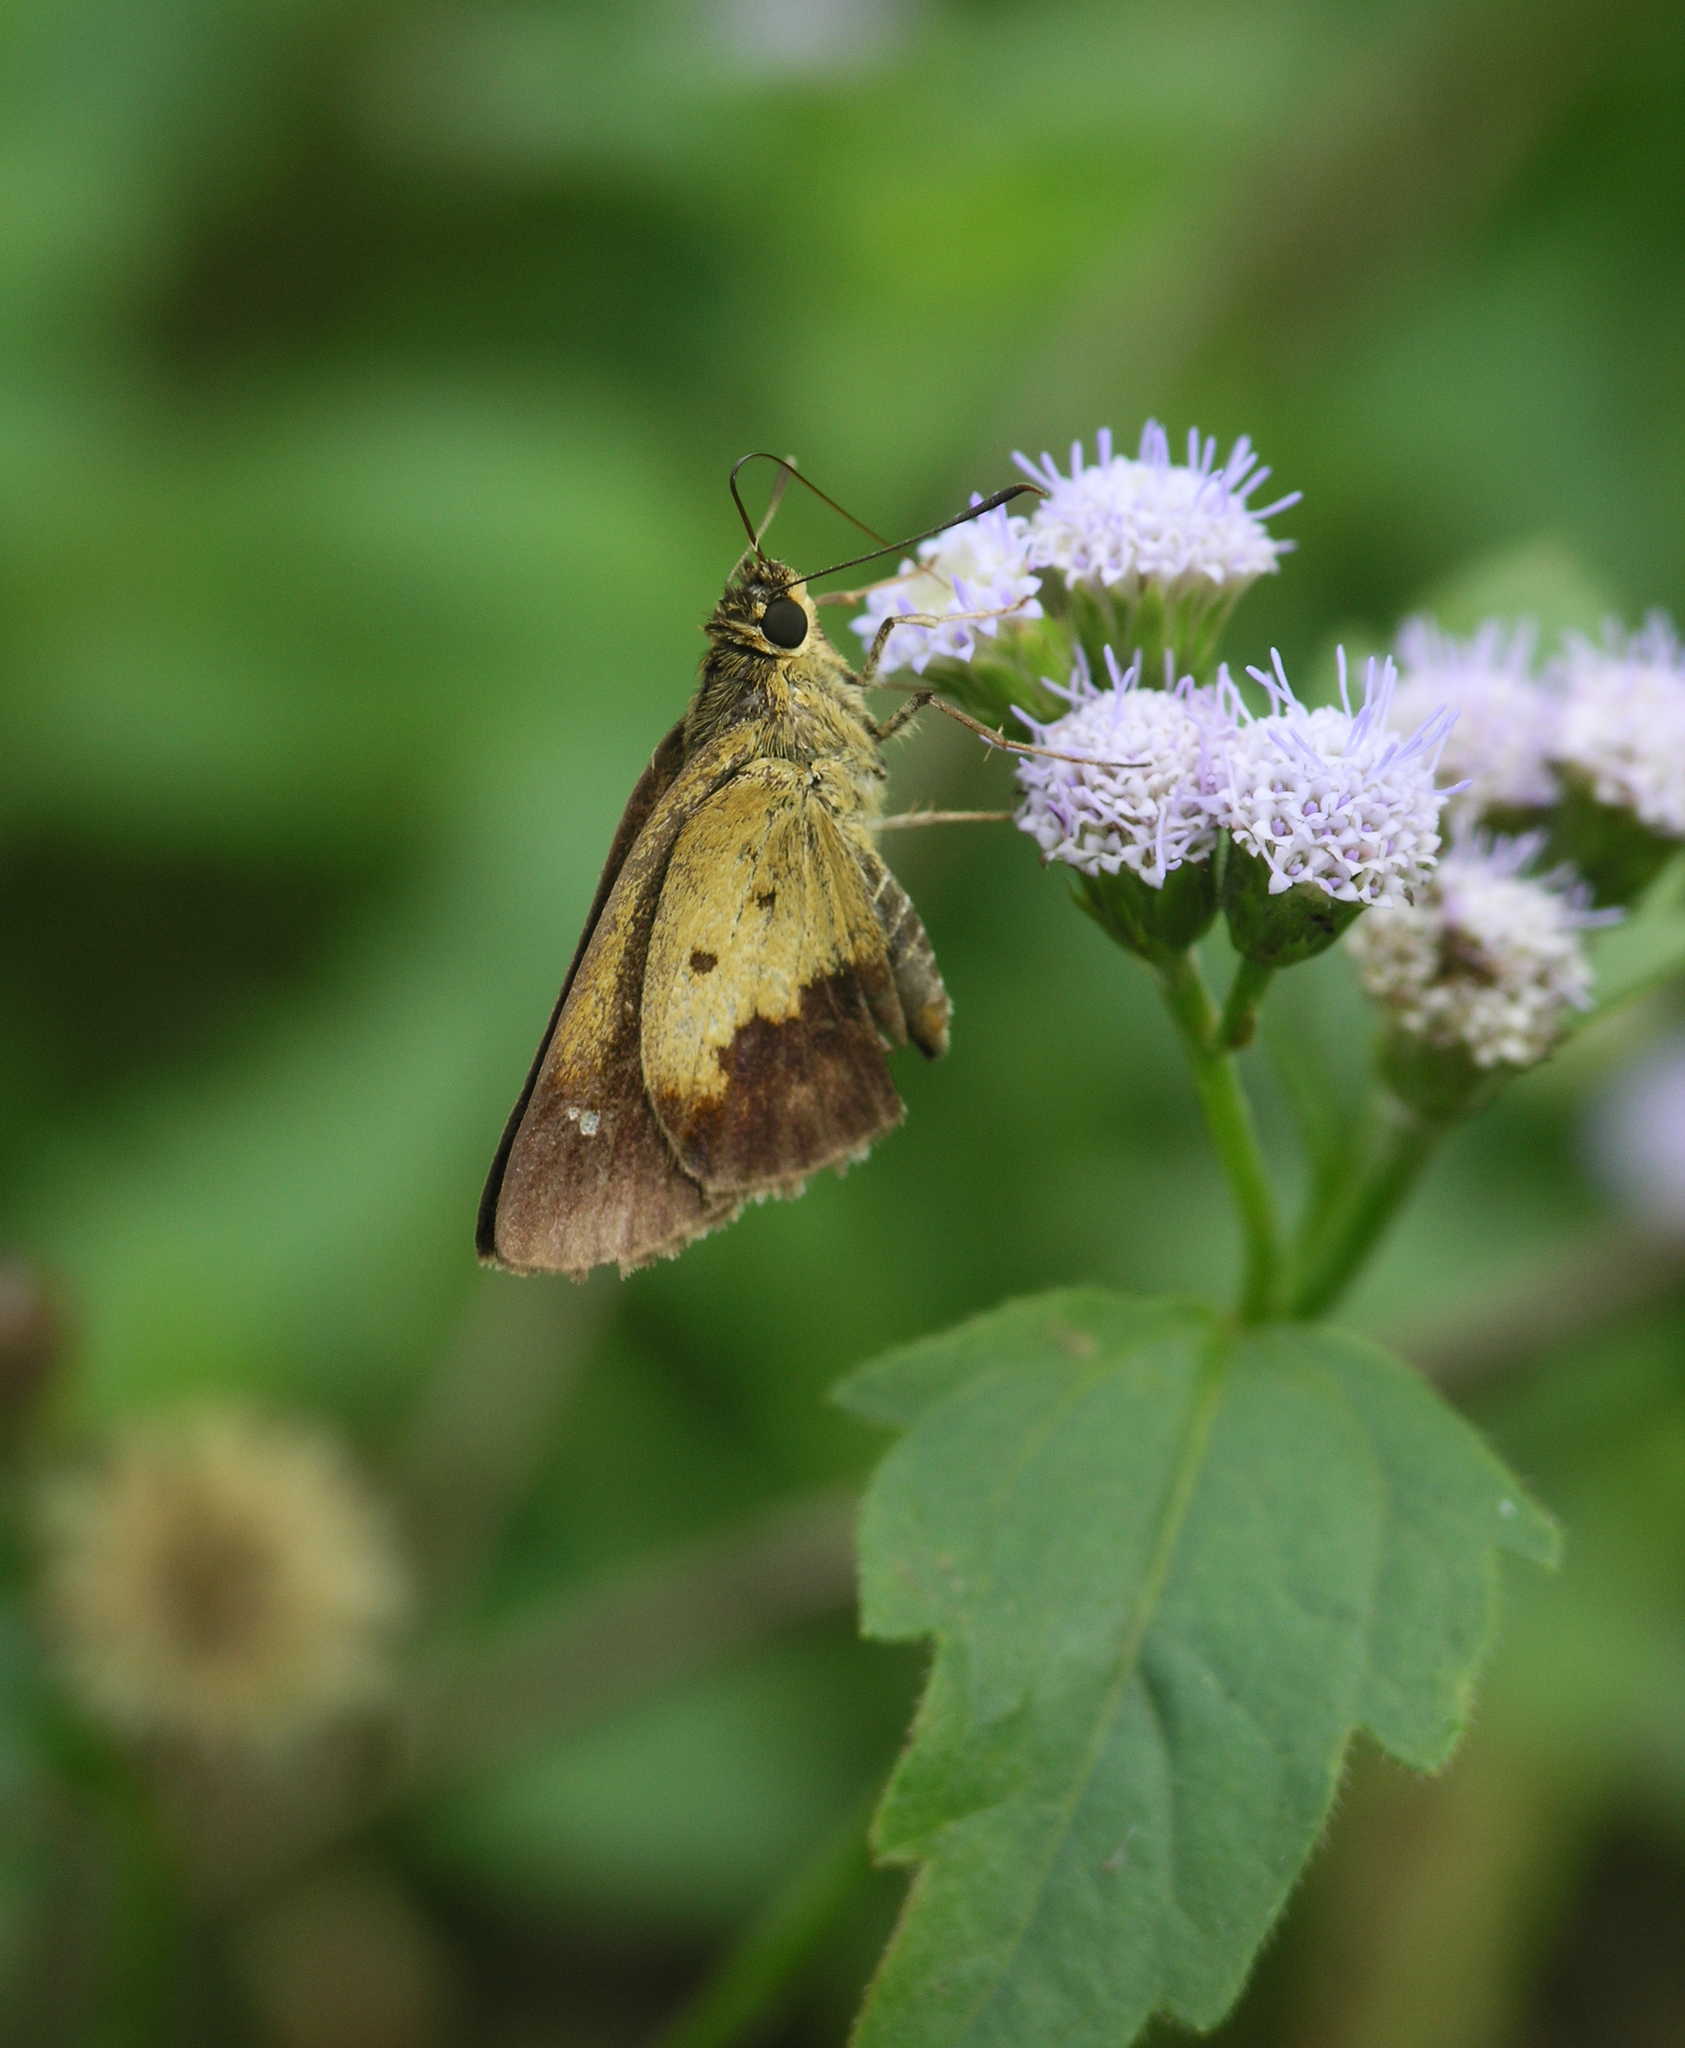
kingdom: Animalia
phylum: Arthropoda
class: Insecta
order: Lepidoptera
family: Hesperiidae
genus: Zographetus
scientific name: Zographetus satwa
